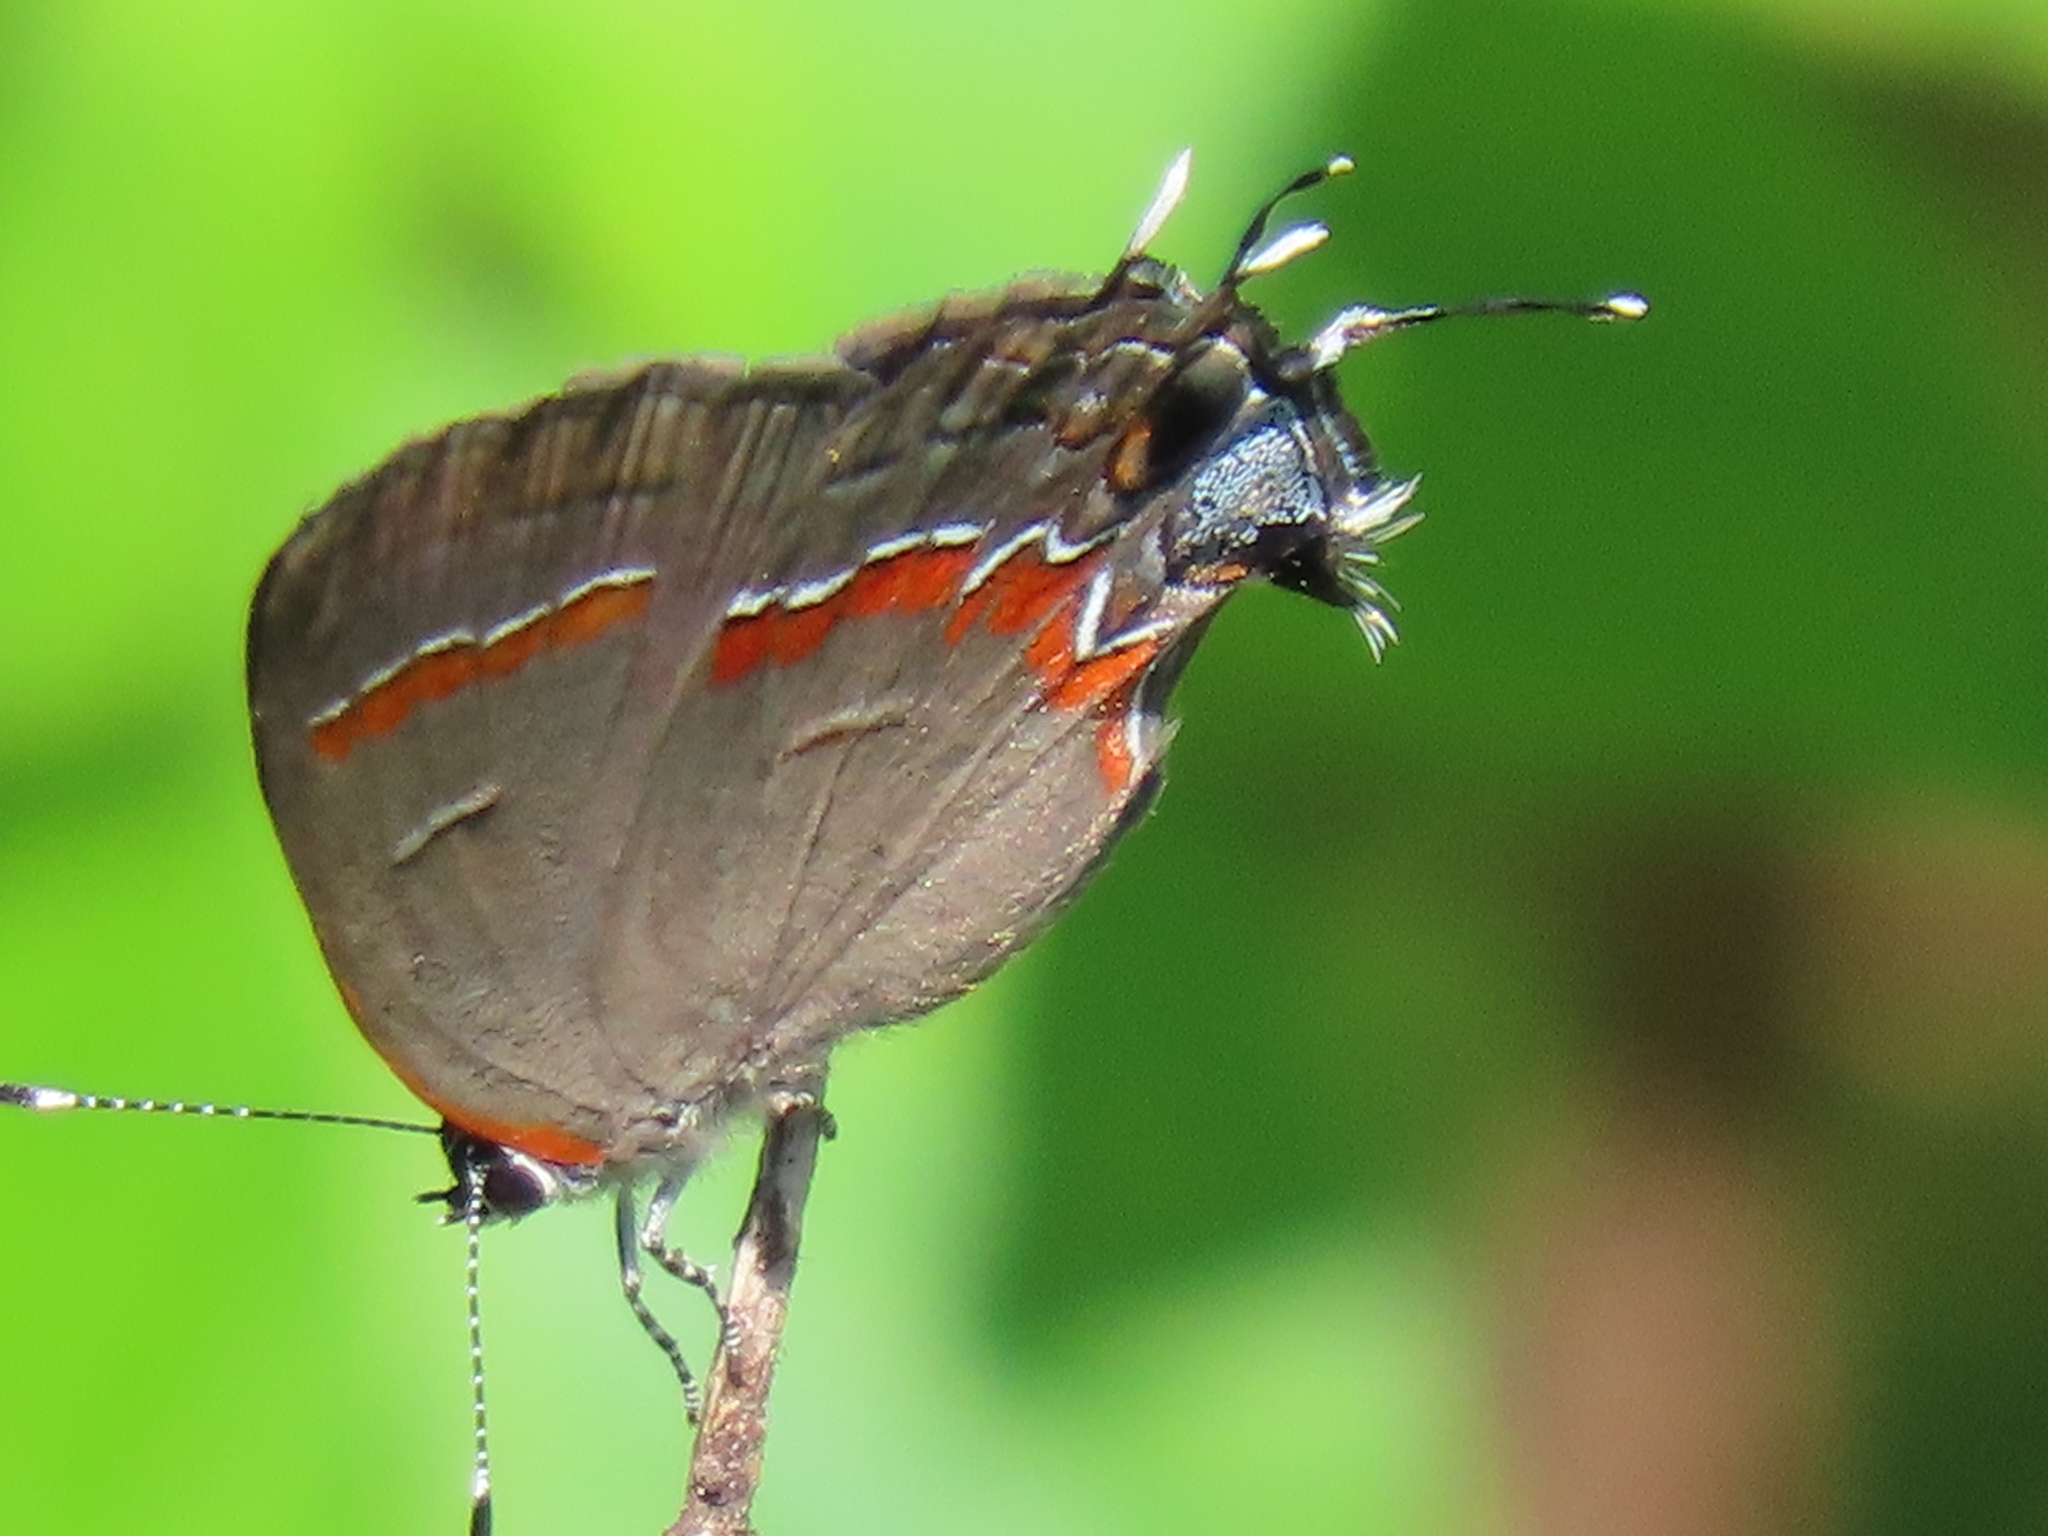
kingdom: Animalia
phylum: Arthropoda
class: Insecta
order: Lepidoptera
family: Lycaenidae
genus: Calycopis
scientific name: Calycopis cecrops
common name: Red-banded hairstreak
